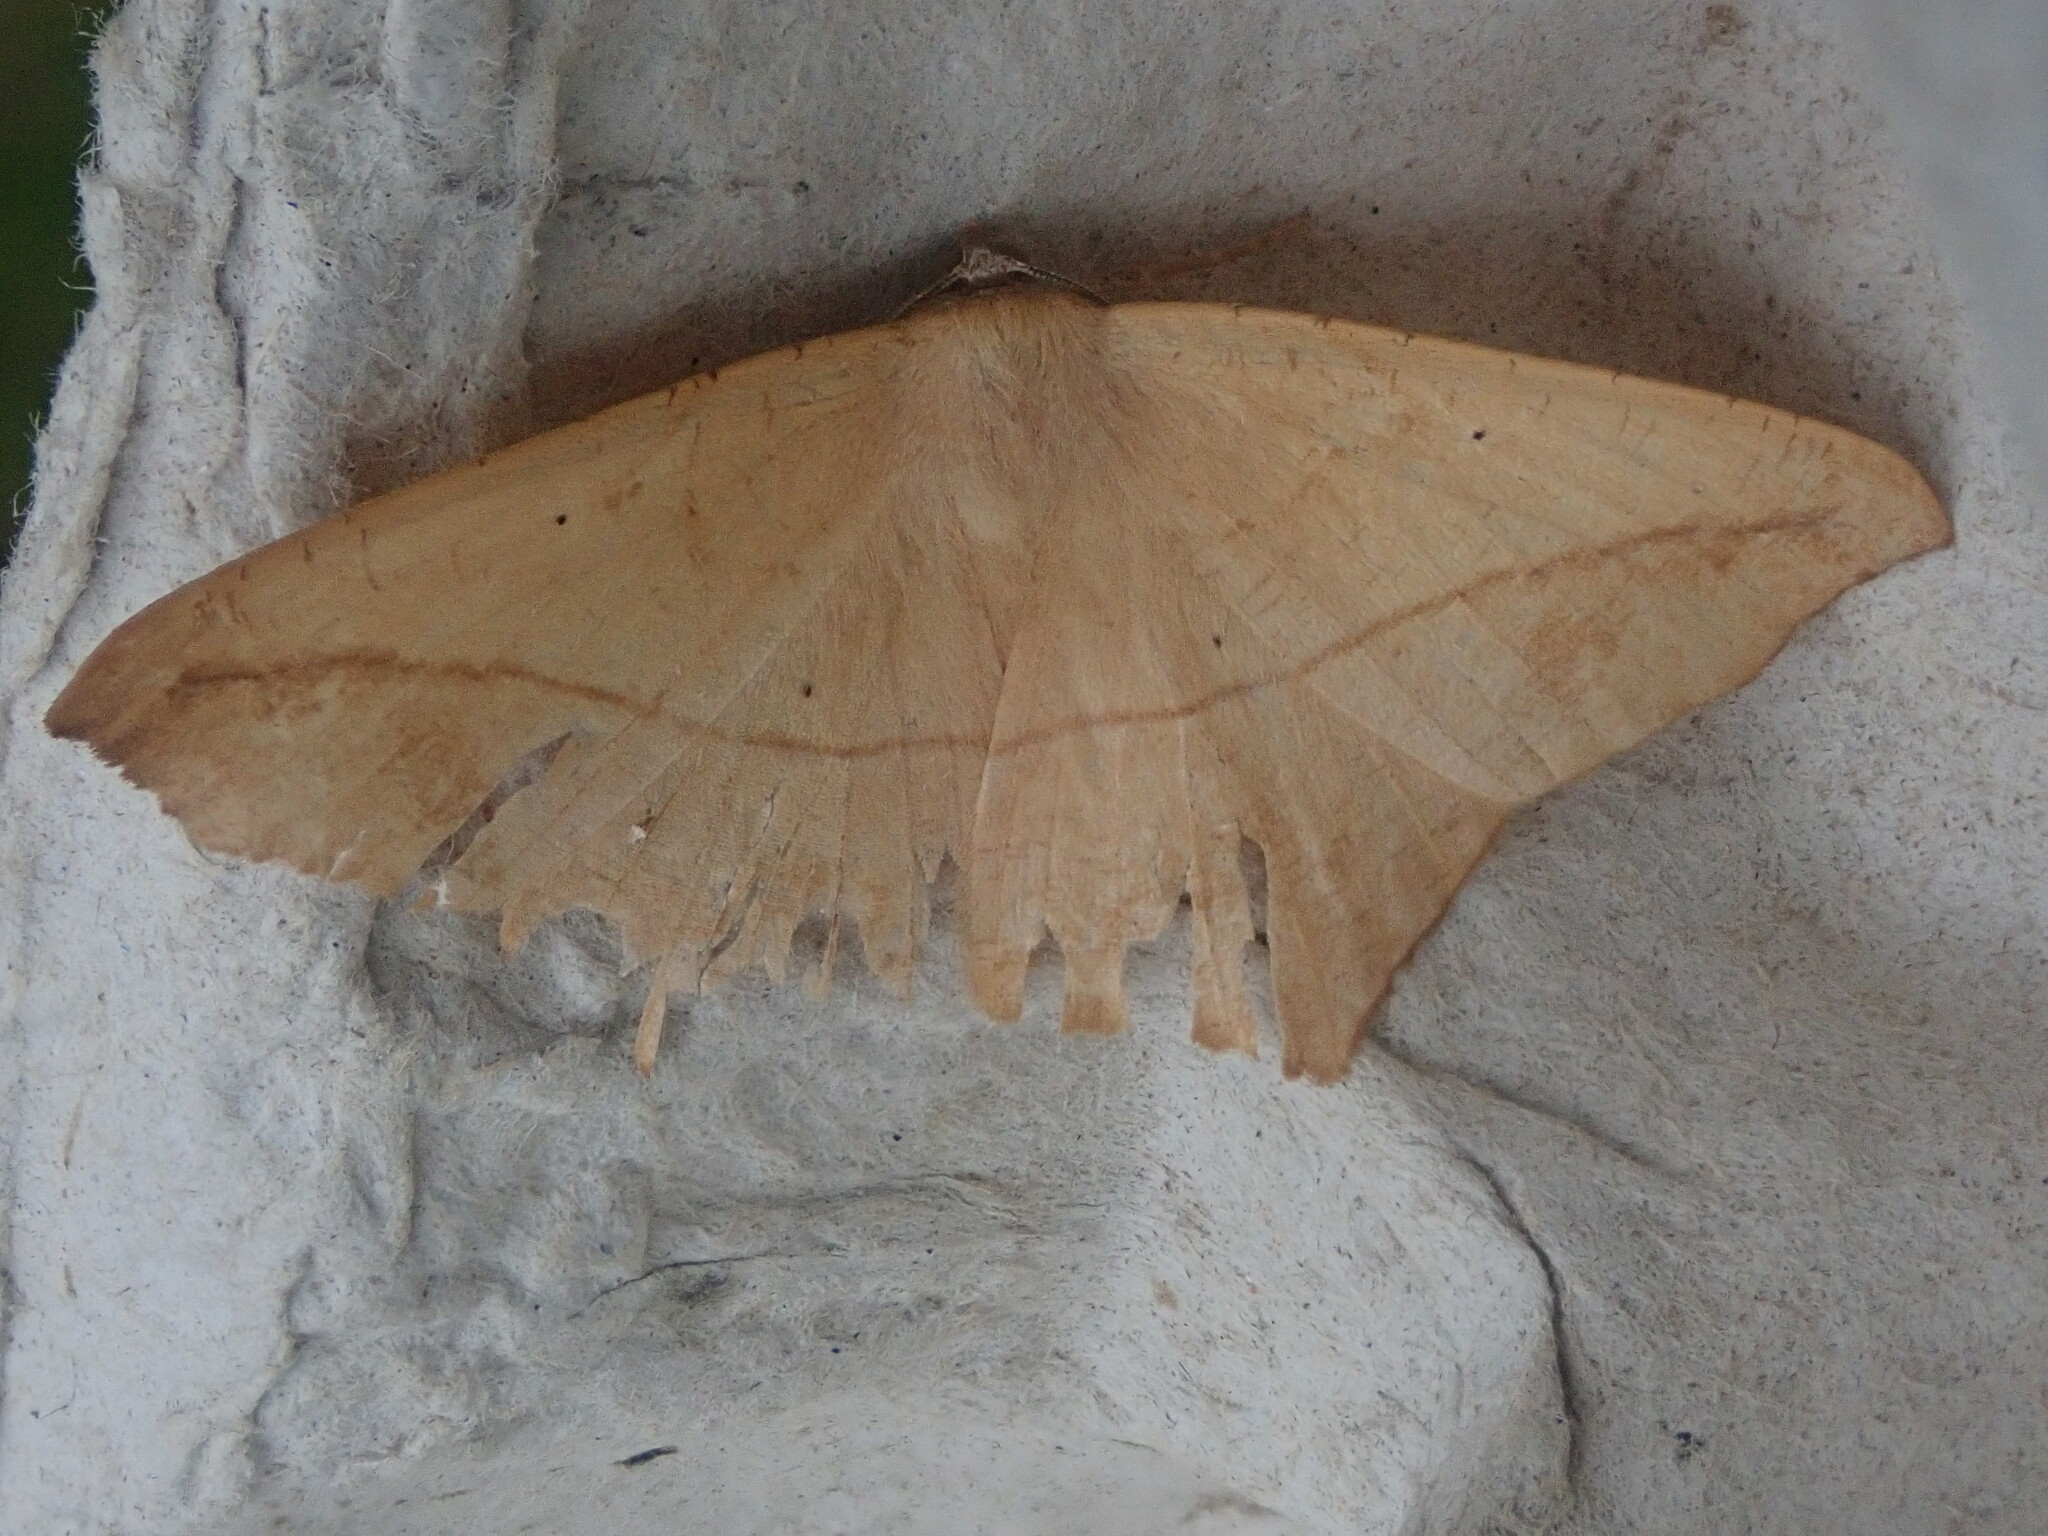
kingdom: Animalia
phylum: Arthropoda
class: Insecta
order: Lepidoptera
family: Geometridae
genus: Prochoerodes
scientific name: Prochoerodes lineola
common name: Large maple spanworm
